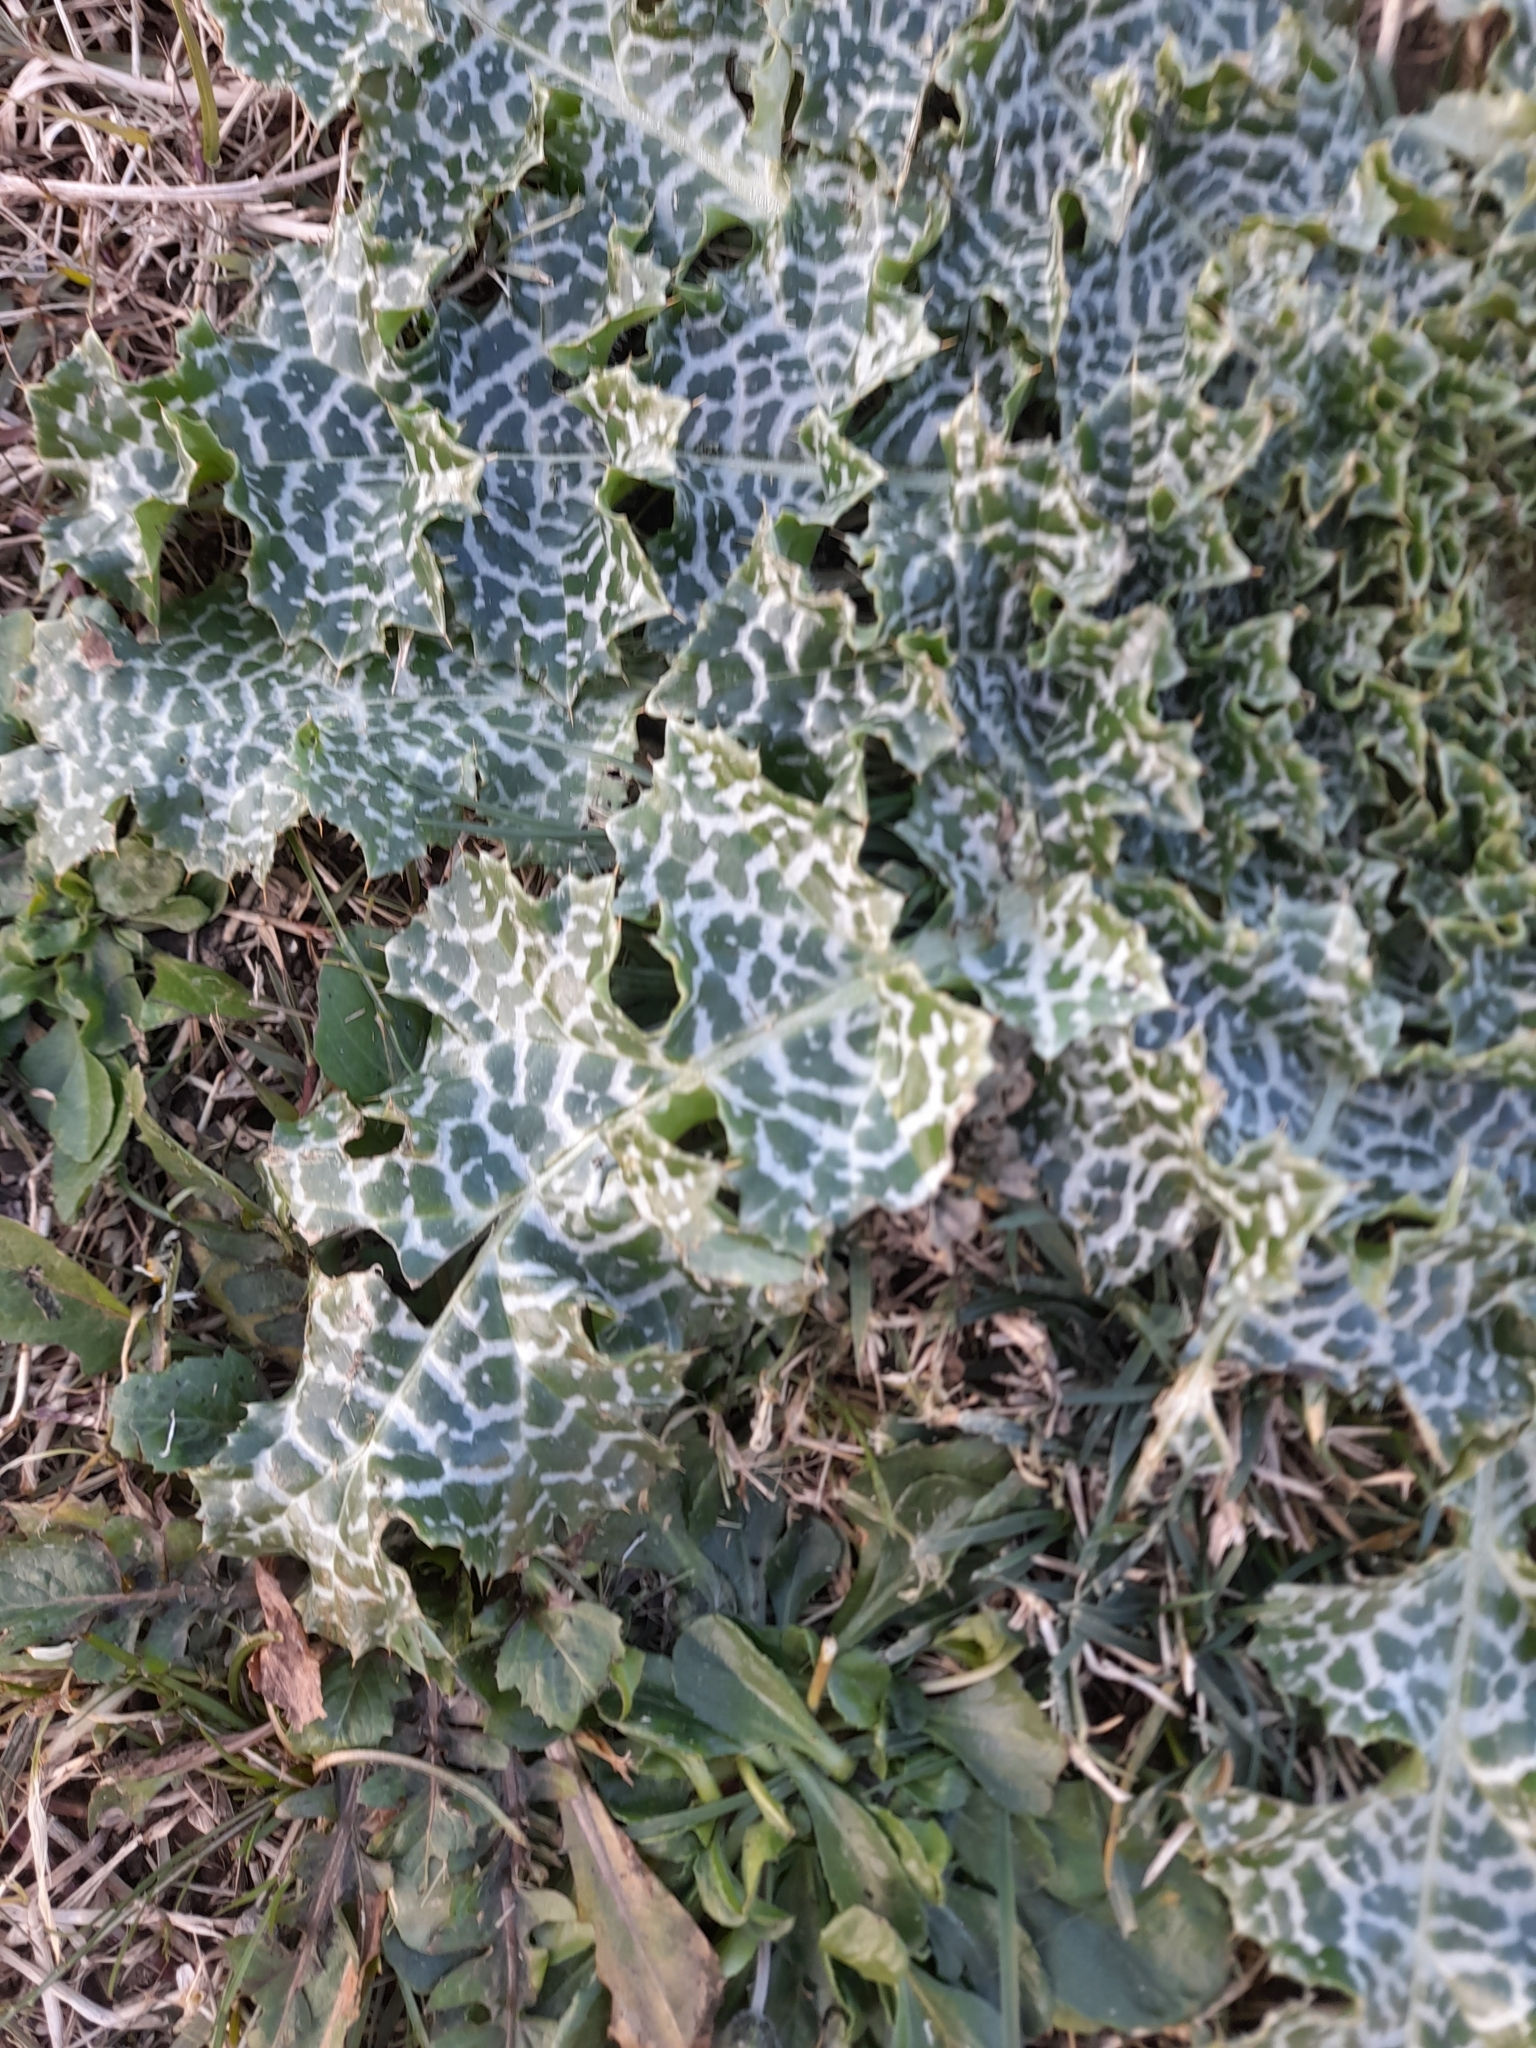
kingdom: Plantae
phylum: Tracheophyta
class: Magnoliopsida
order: Asterales
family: Asteraceae
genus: Silybum
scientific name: Silybum marianum
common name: Milk thistle
